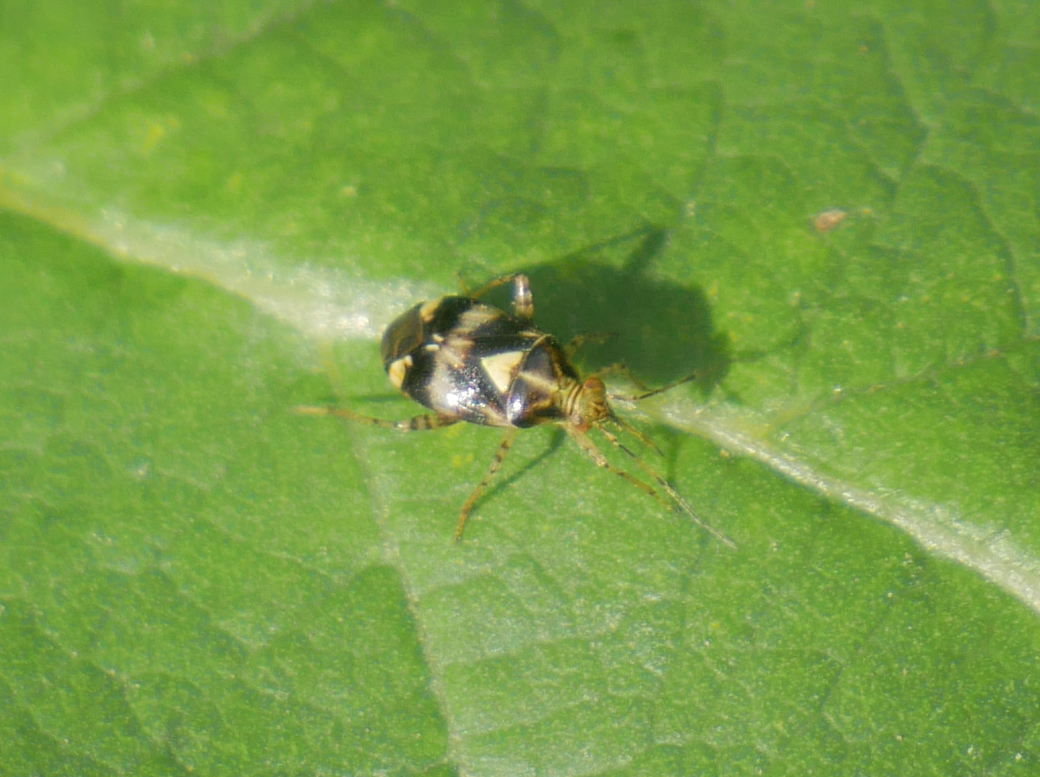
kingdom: Animalia
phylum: Arthropoda
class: Insecta
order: Hemiptera
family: Miridae
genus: Liocoris
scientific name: Liocoris tripustulatus
